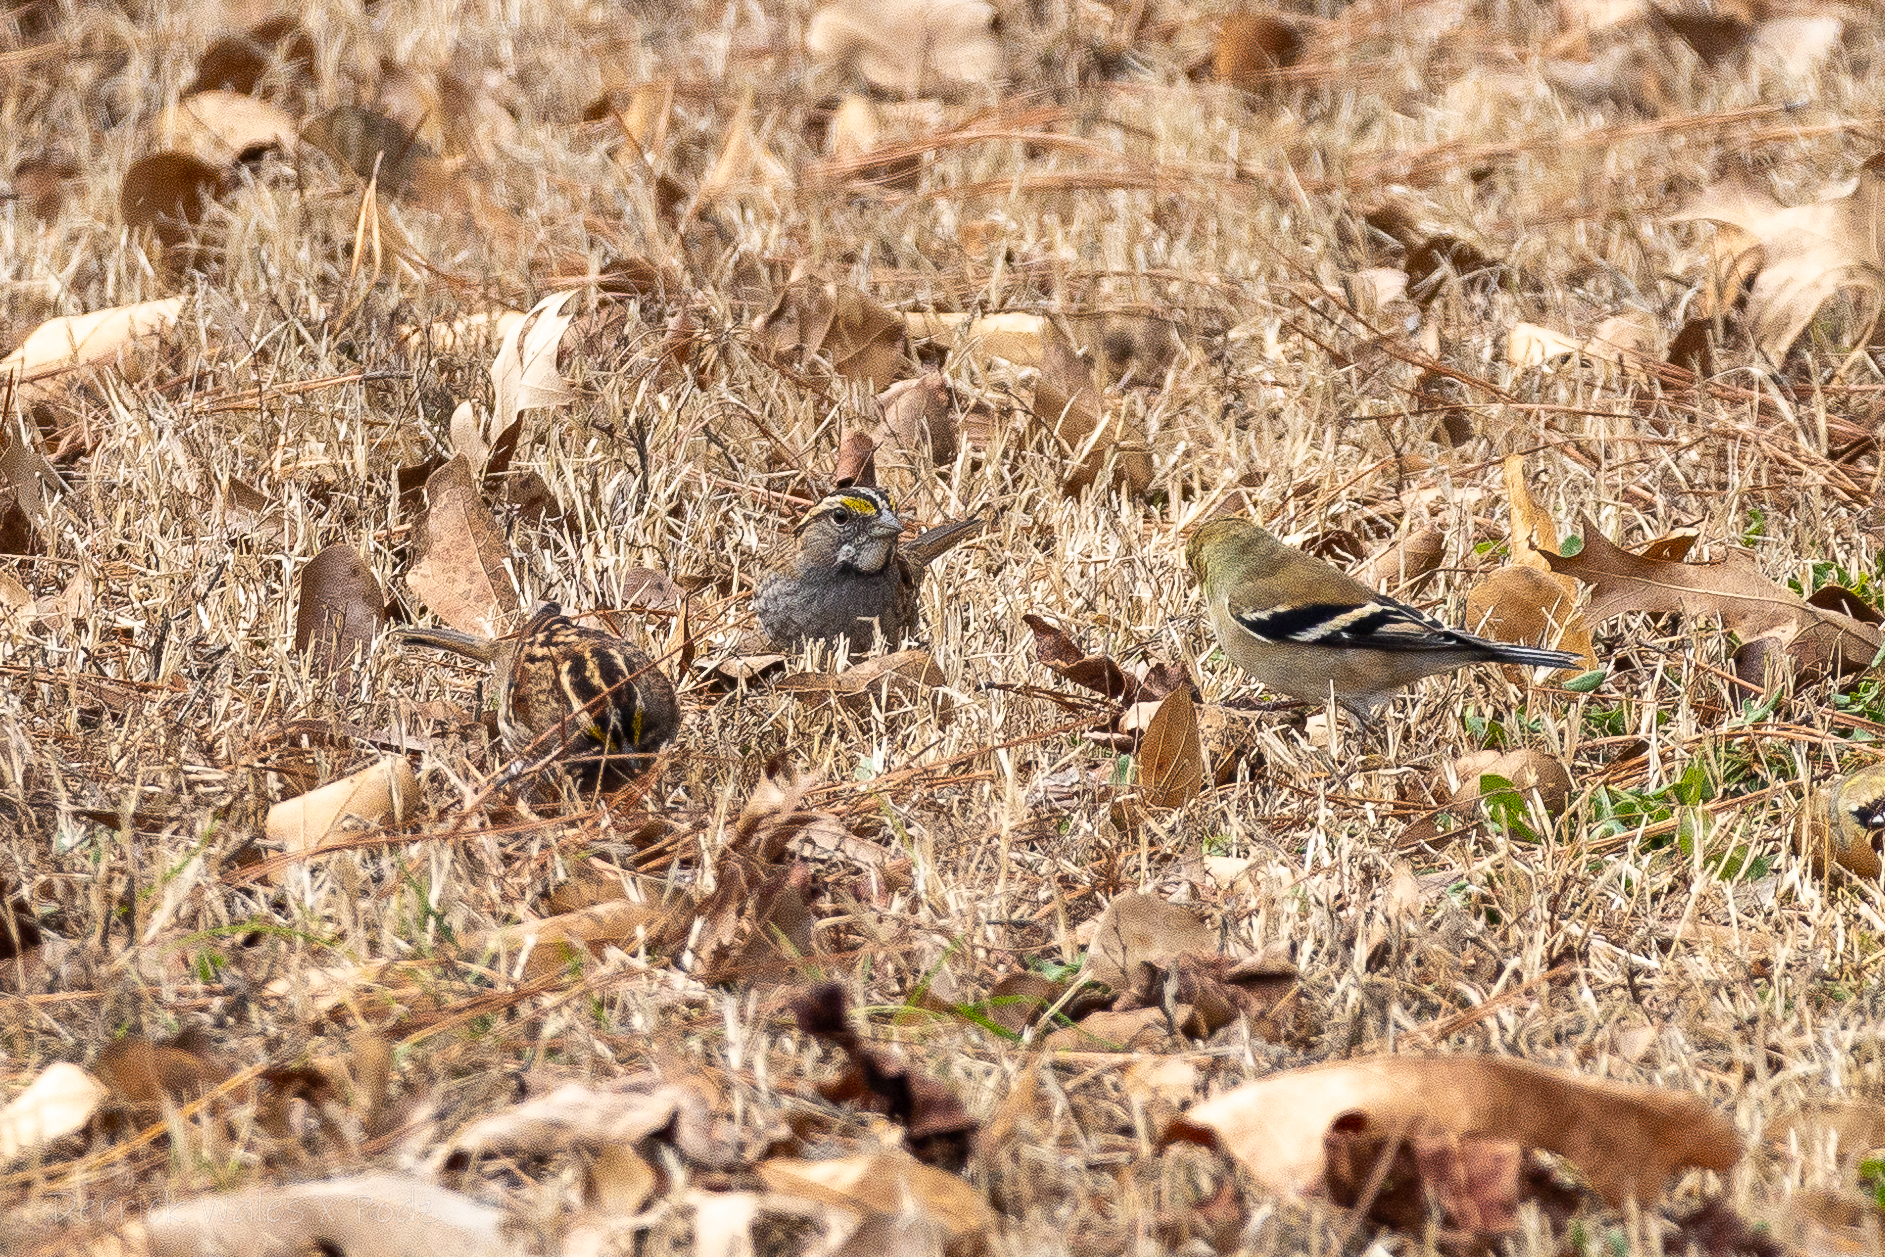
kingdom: Animalia
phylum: Chordata
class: Aves
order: Passeriformes
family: Passerellidae
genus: Zonotrichia
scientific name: Zonotrichia albicollis
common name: White-throated sparrow
